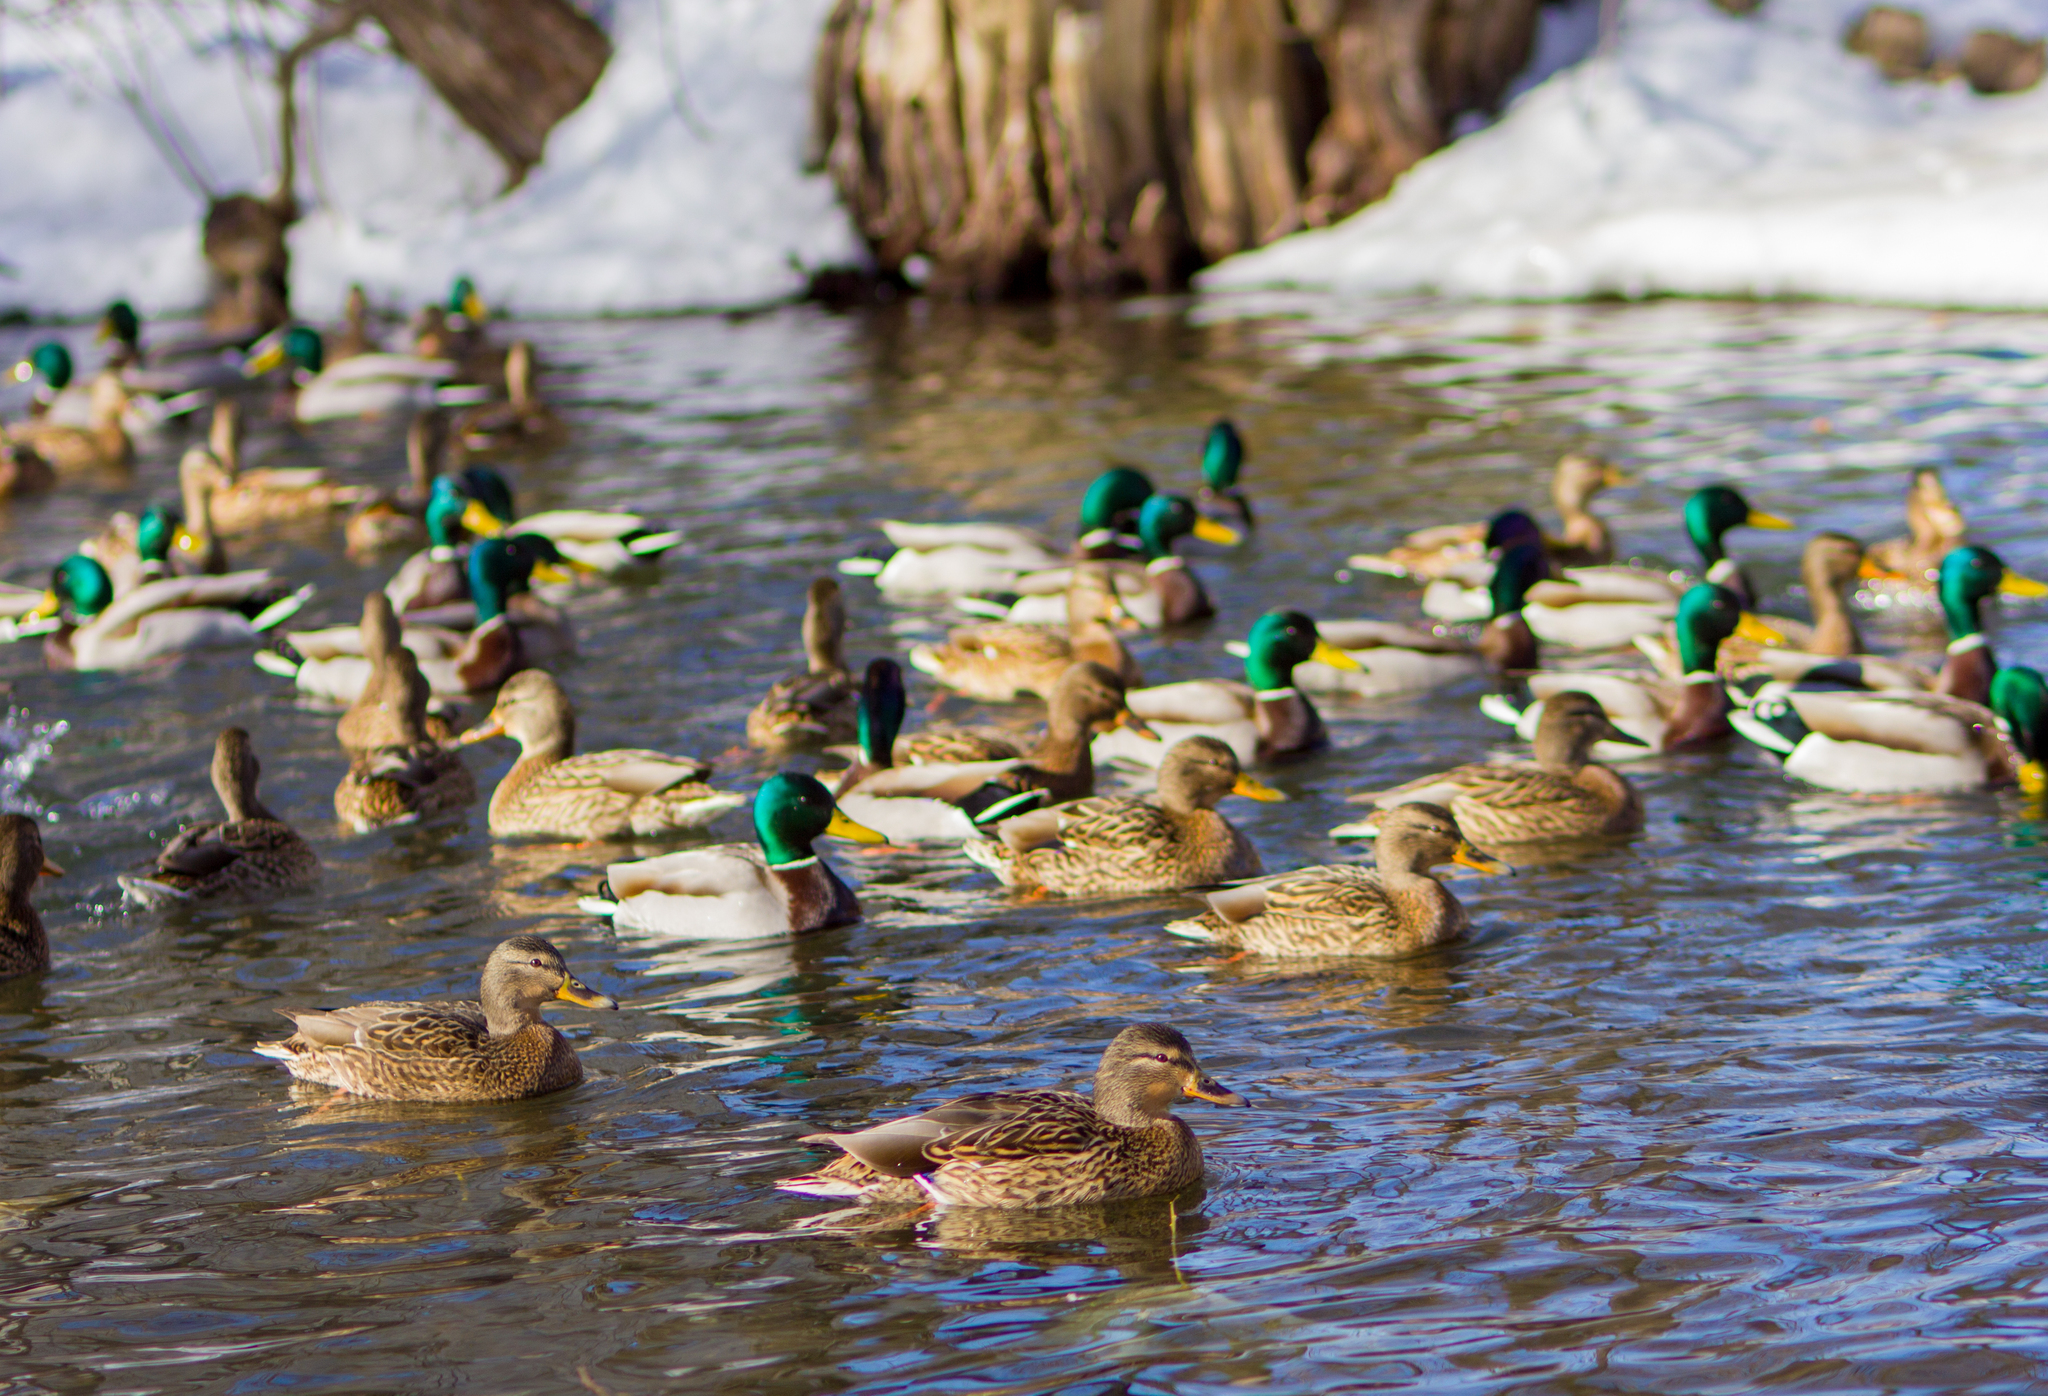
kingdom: Animalia
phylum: Chordata
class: Aves
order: Anseriformes
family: Anatidae
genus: Anas
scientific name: Anas platyrhynchos
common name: Mallard
